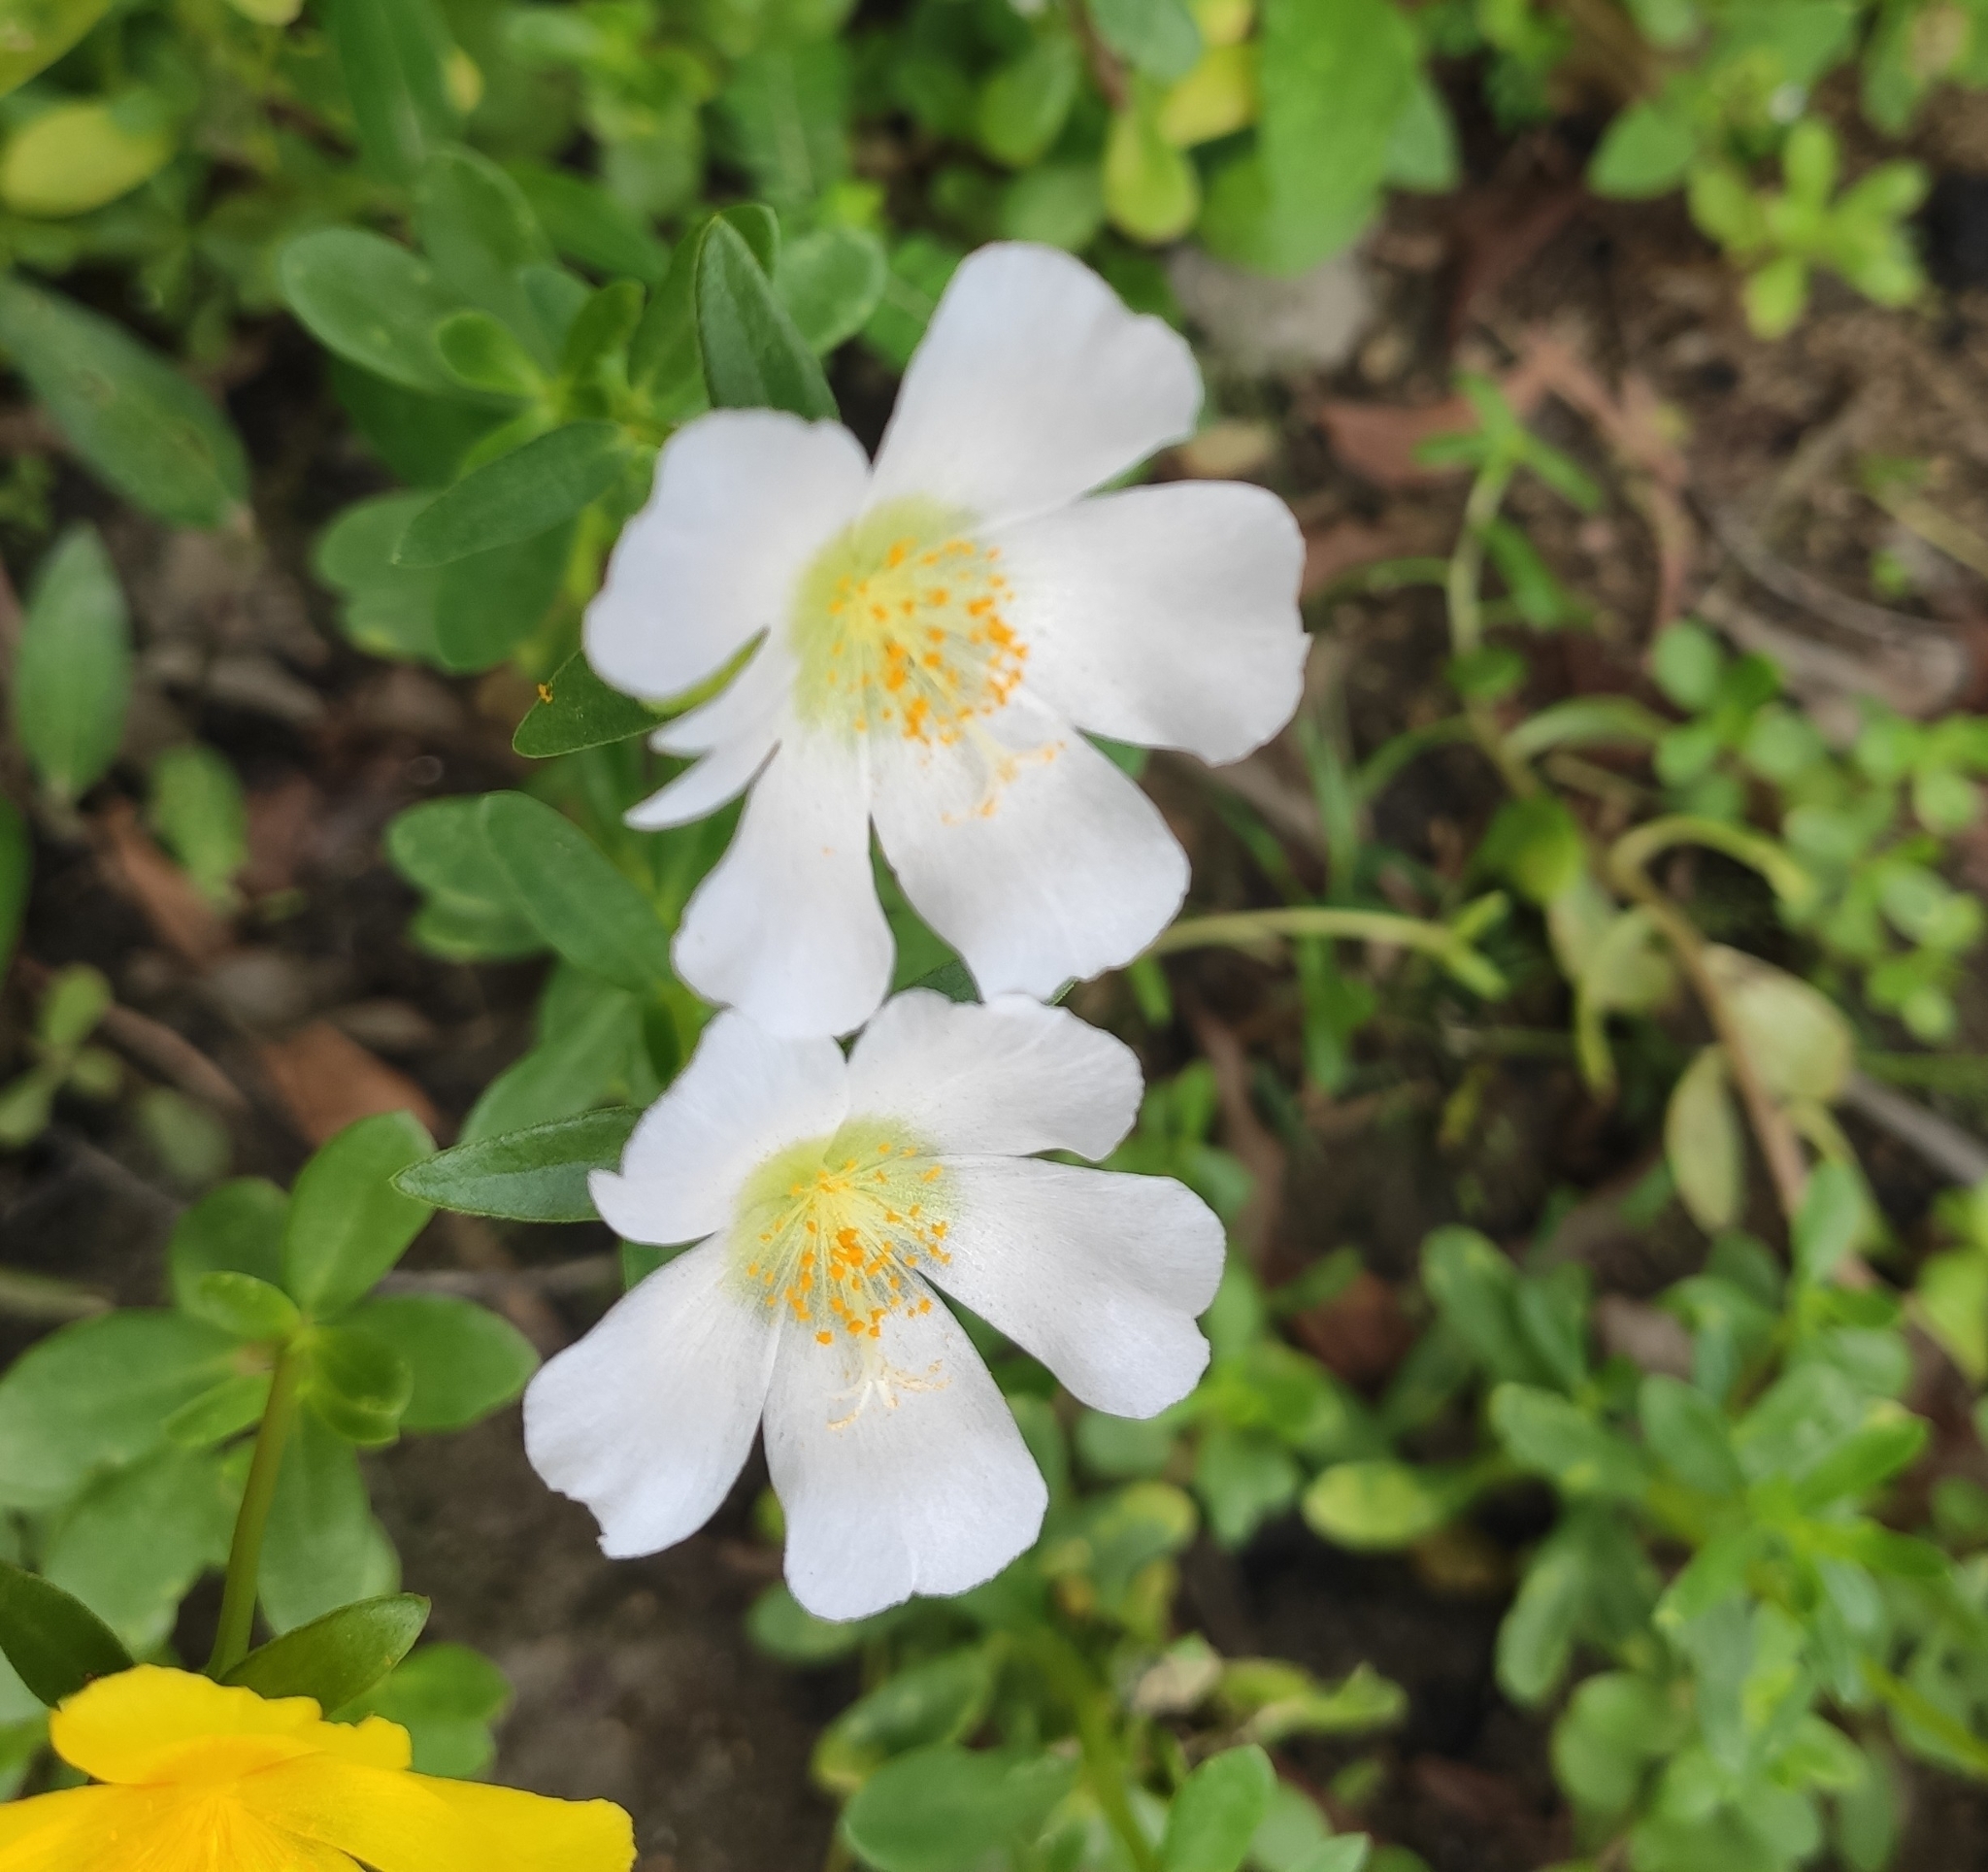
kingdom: Plantae
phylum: Tracheophyta
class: Magnoliopsida
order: Caryophyllales
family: Portulacaceae
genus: Portulaca
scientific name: Portulaca umbraticola
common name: Wingpod purslane
